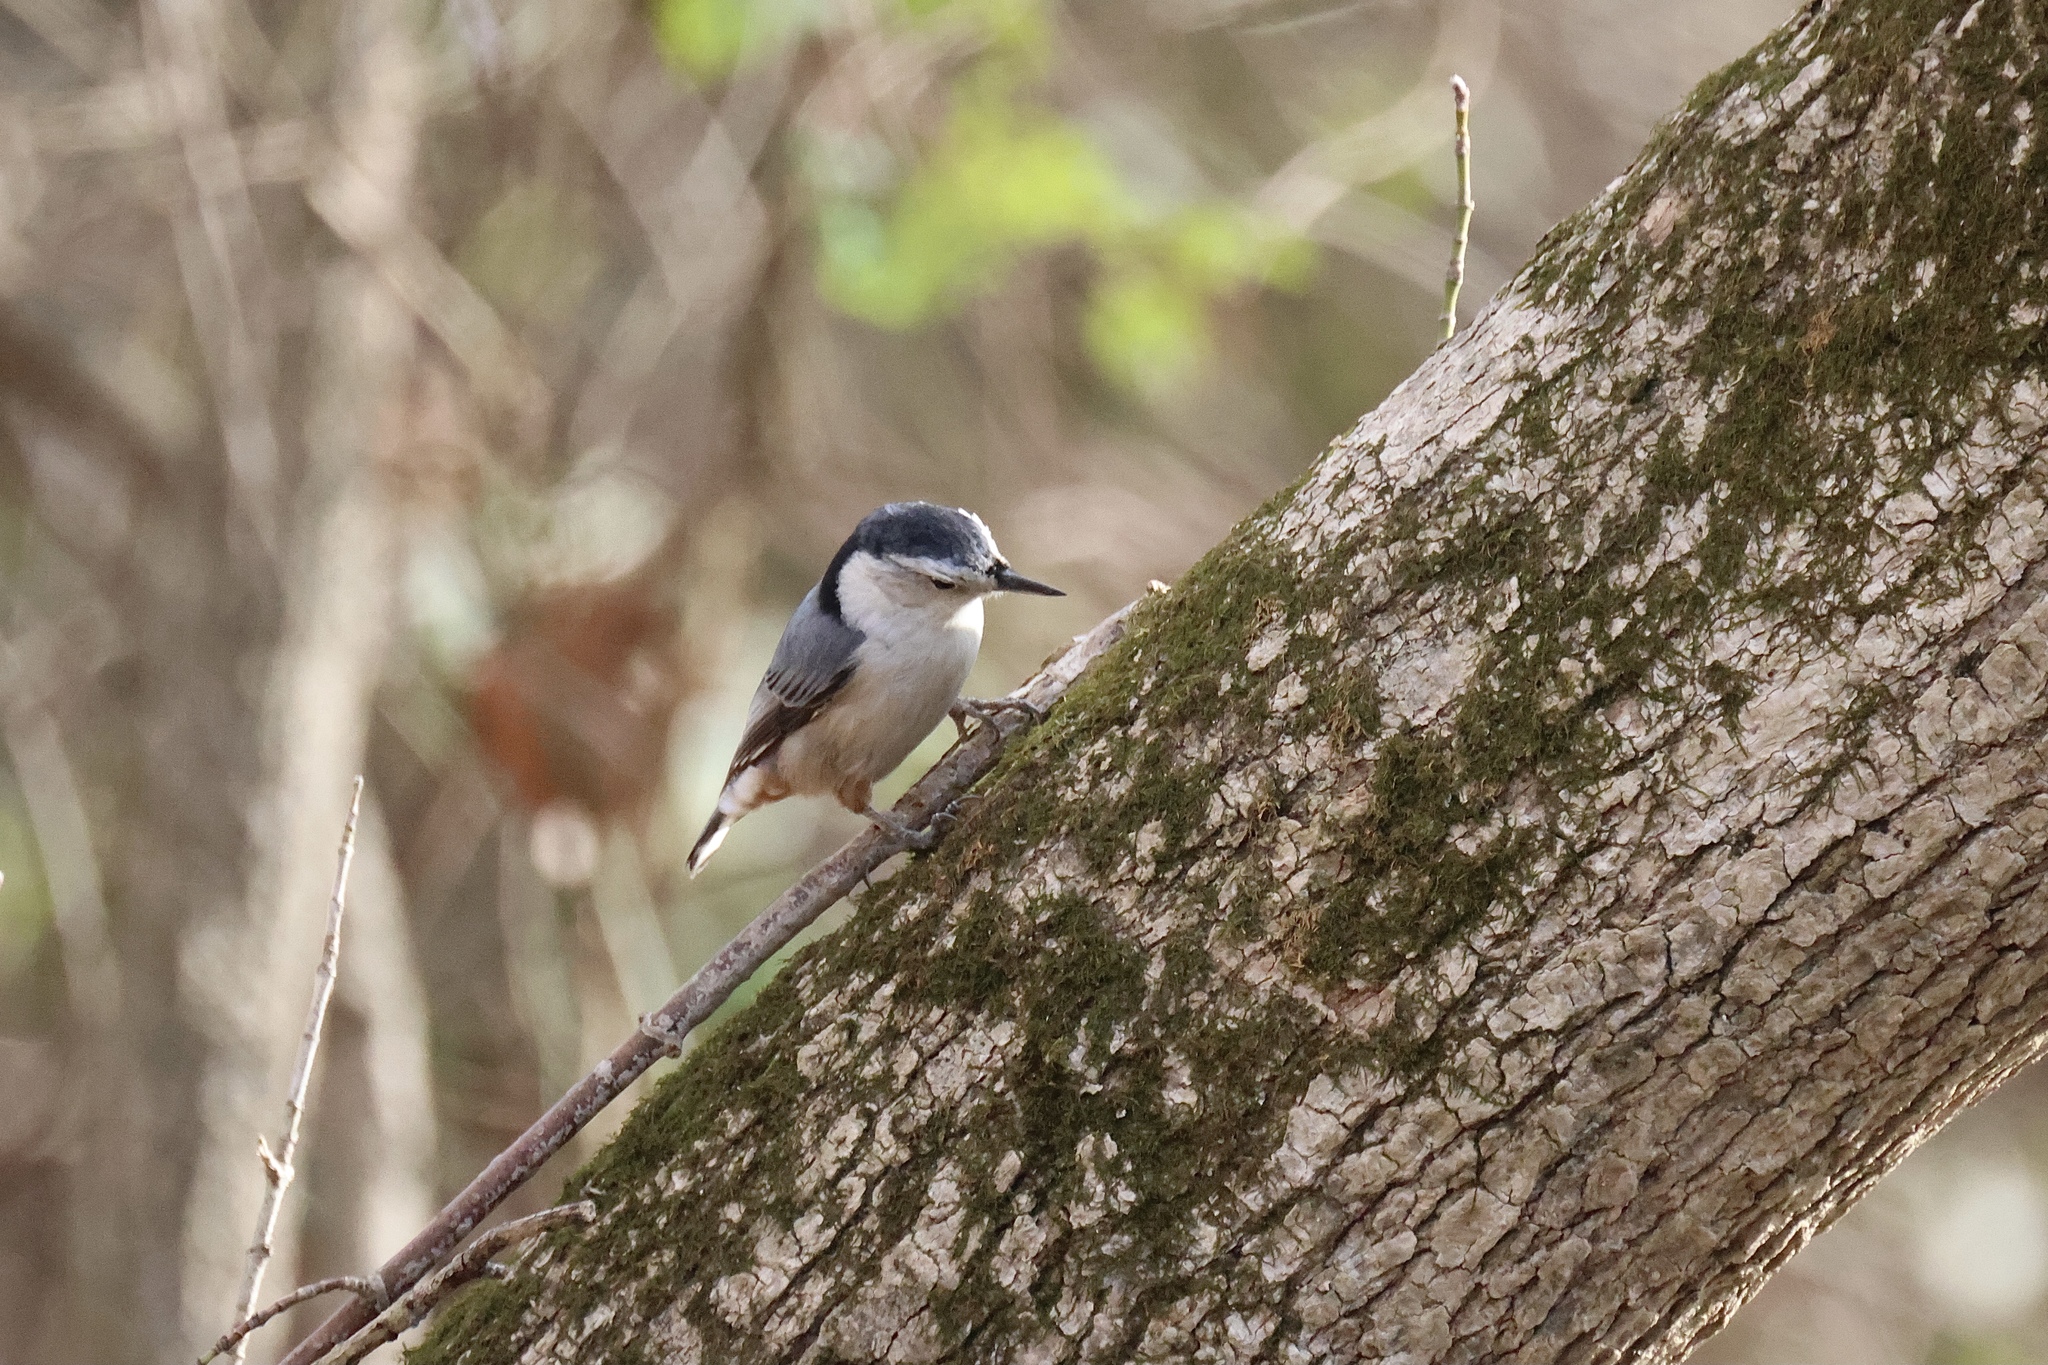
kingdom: Animalia
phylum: Chordata
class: Aves
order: Passeriformes
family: Sittidae
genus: Sitta
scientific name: Sitta carolinensis
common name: White-breasted nuthatch
